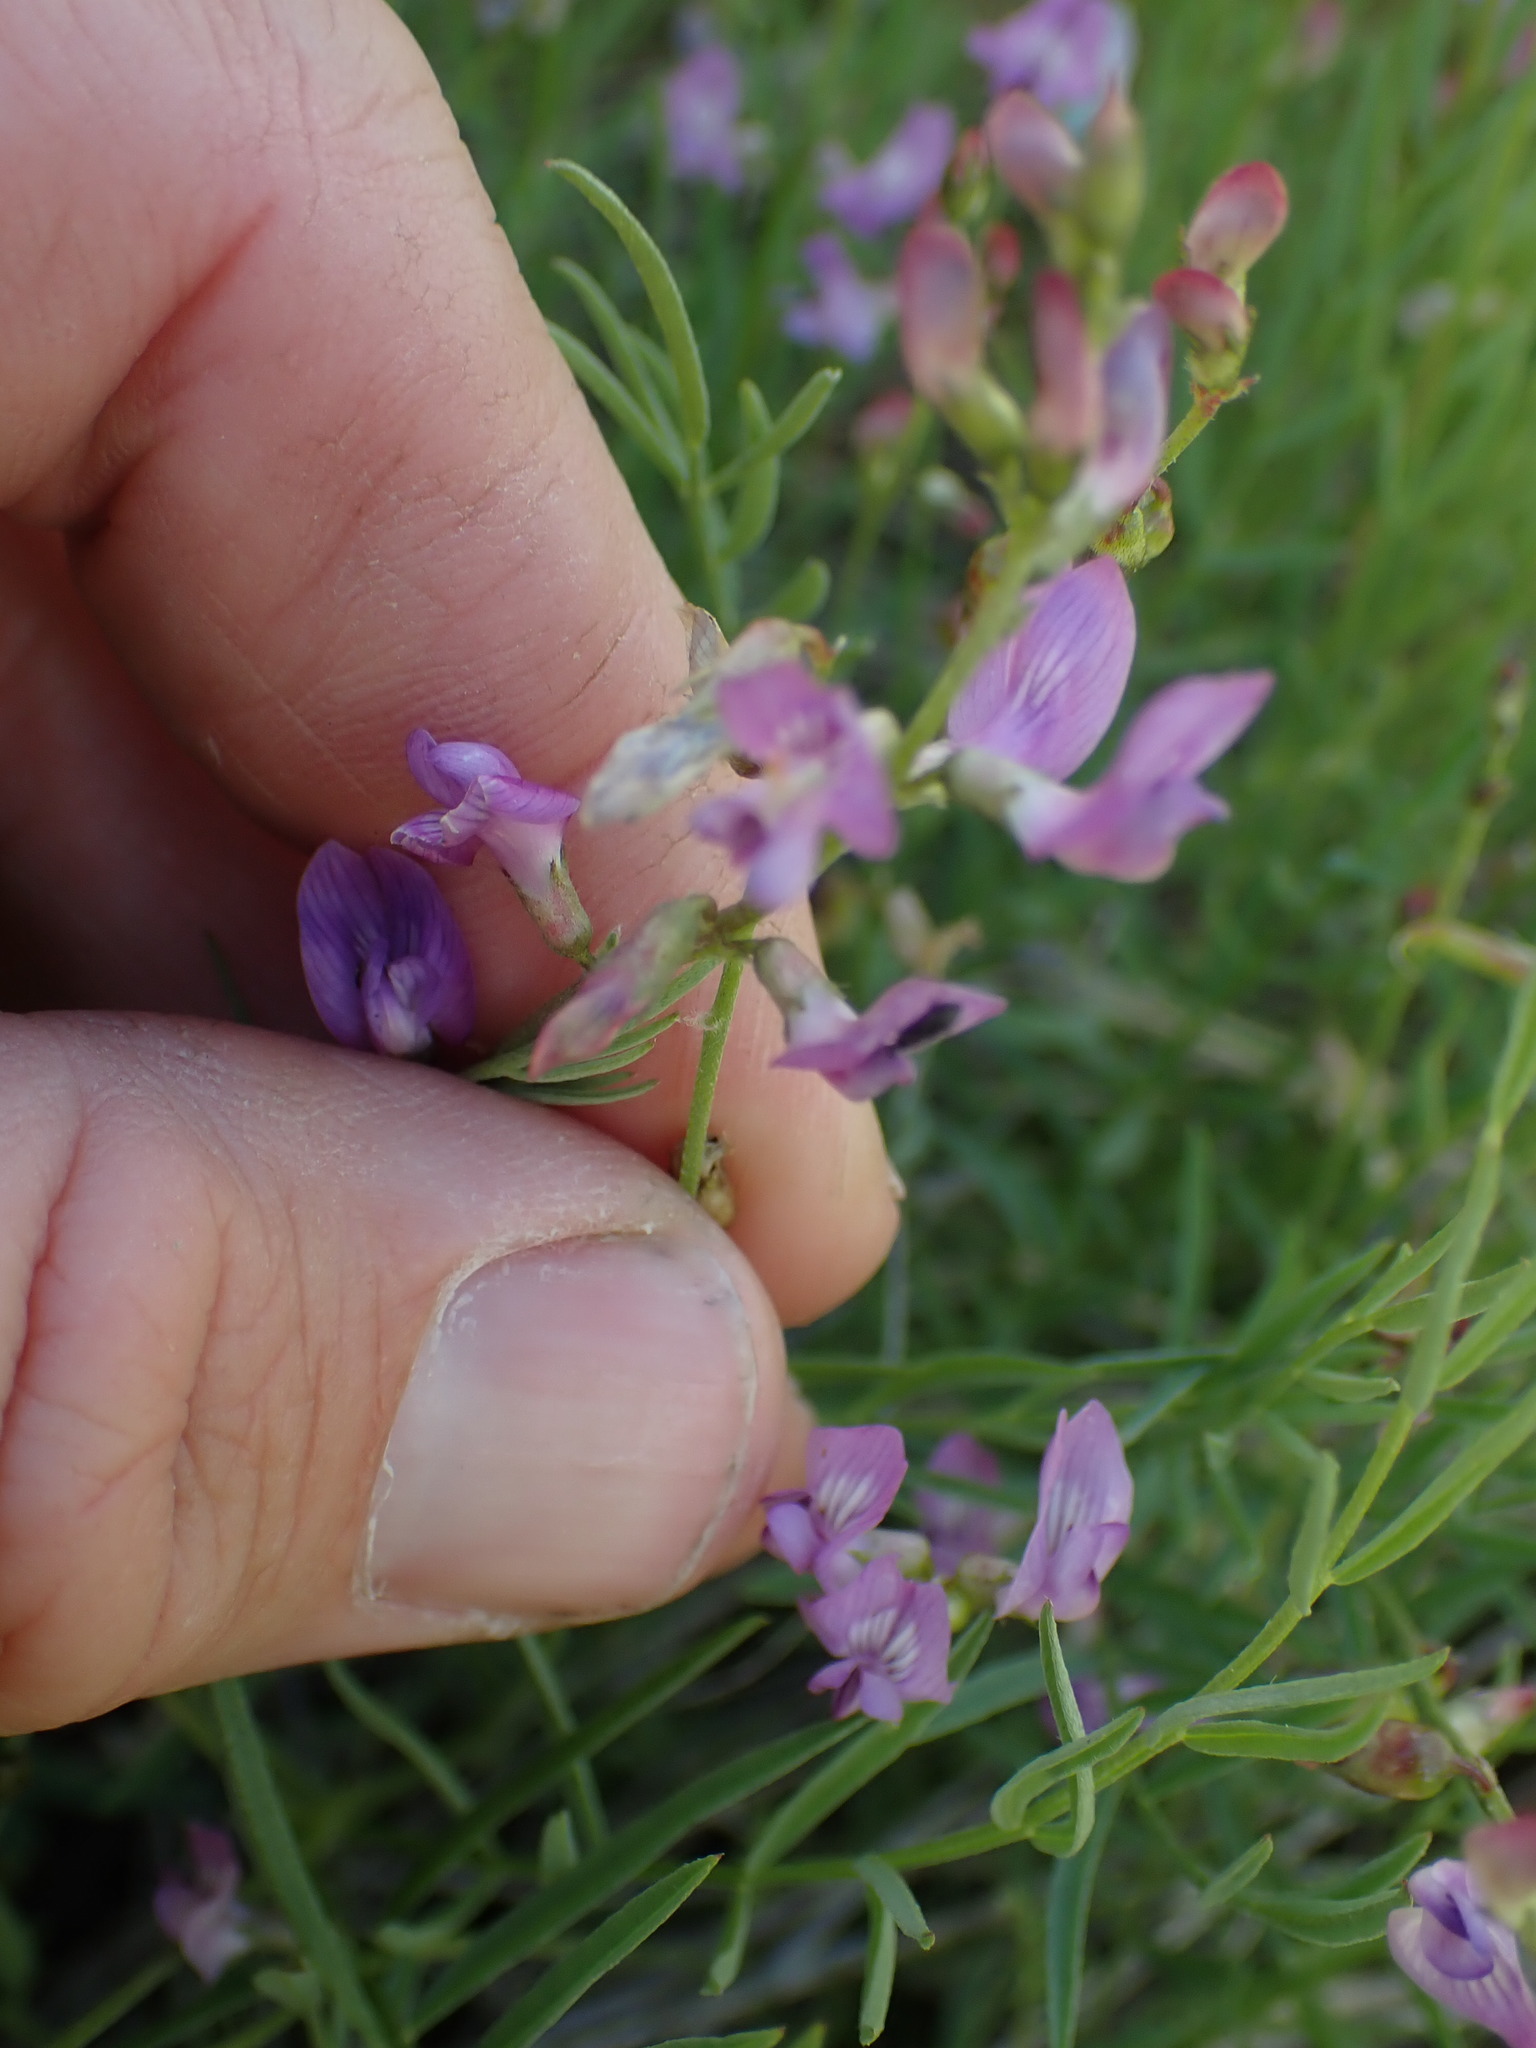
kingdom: Plantae
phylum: Tracheophyta
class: Magnoliopsida
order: Fabales
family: Fabaceae
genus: Astragalus
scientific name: Astragalus miser
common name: Timber milkvetch
